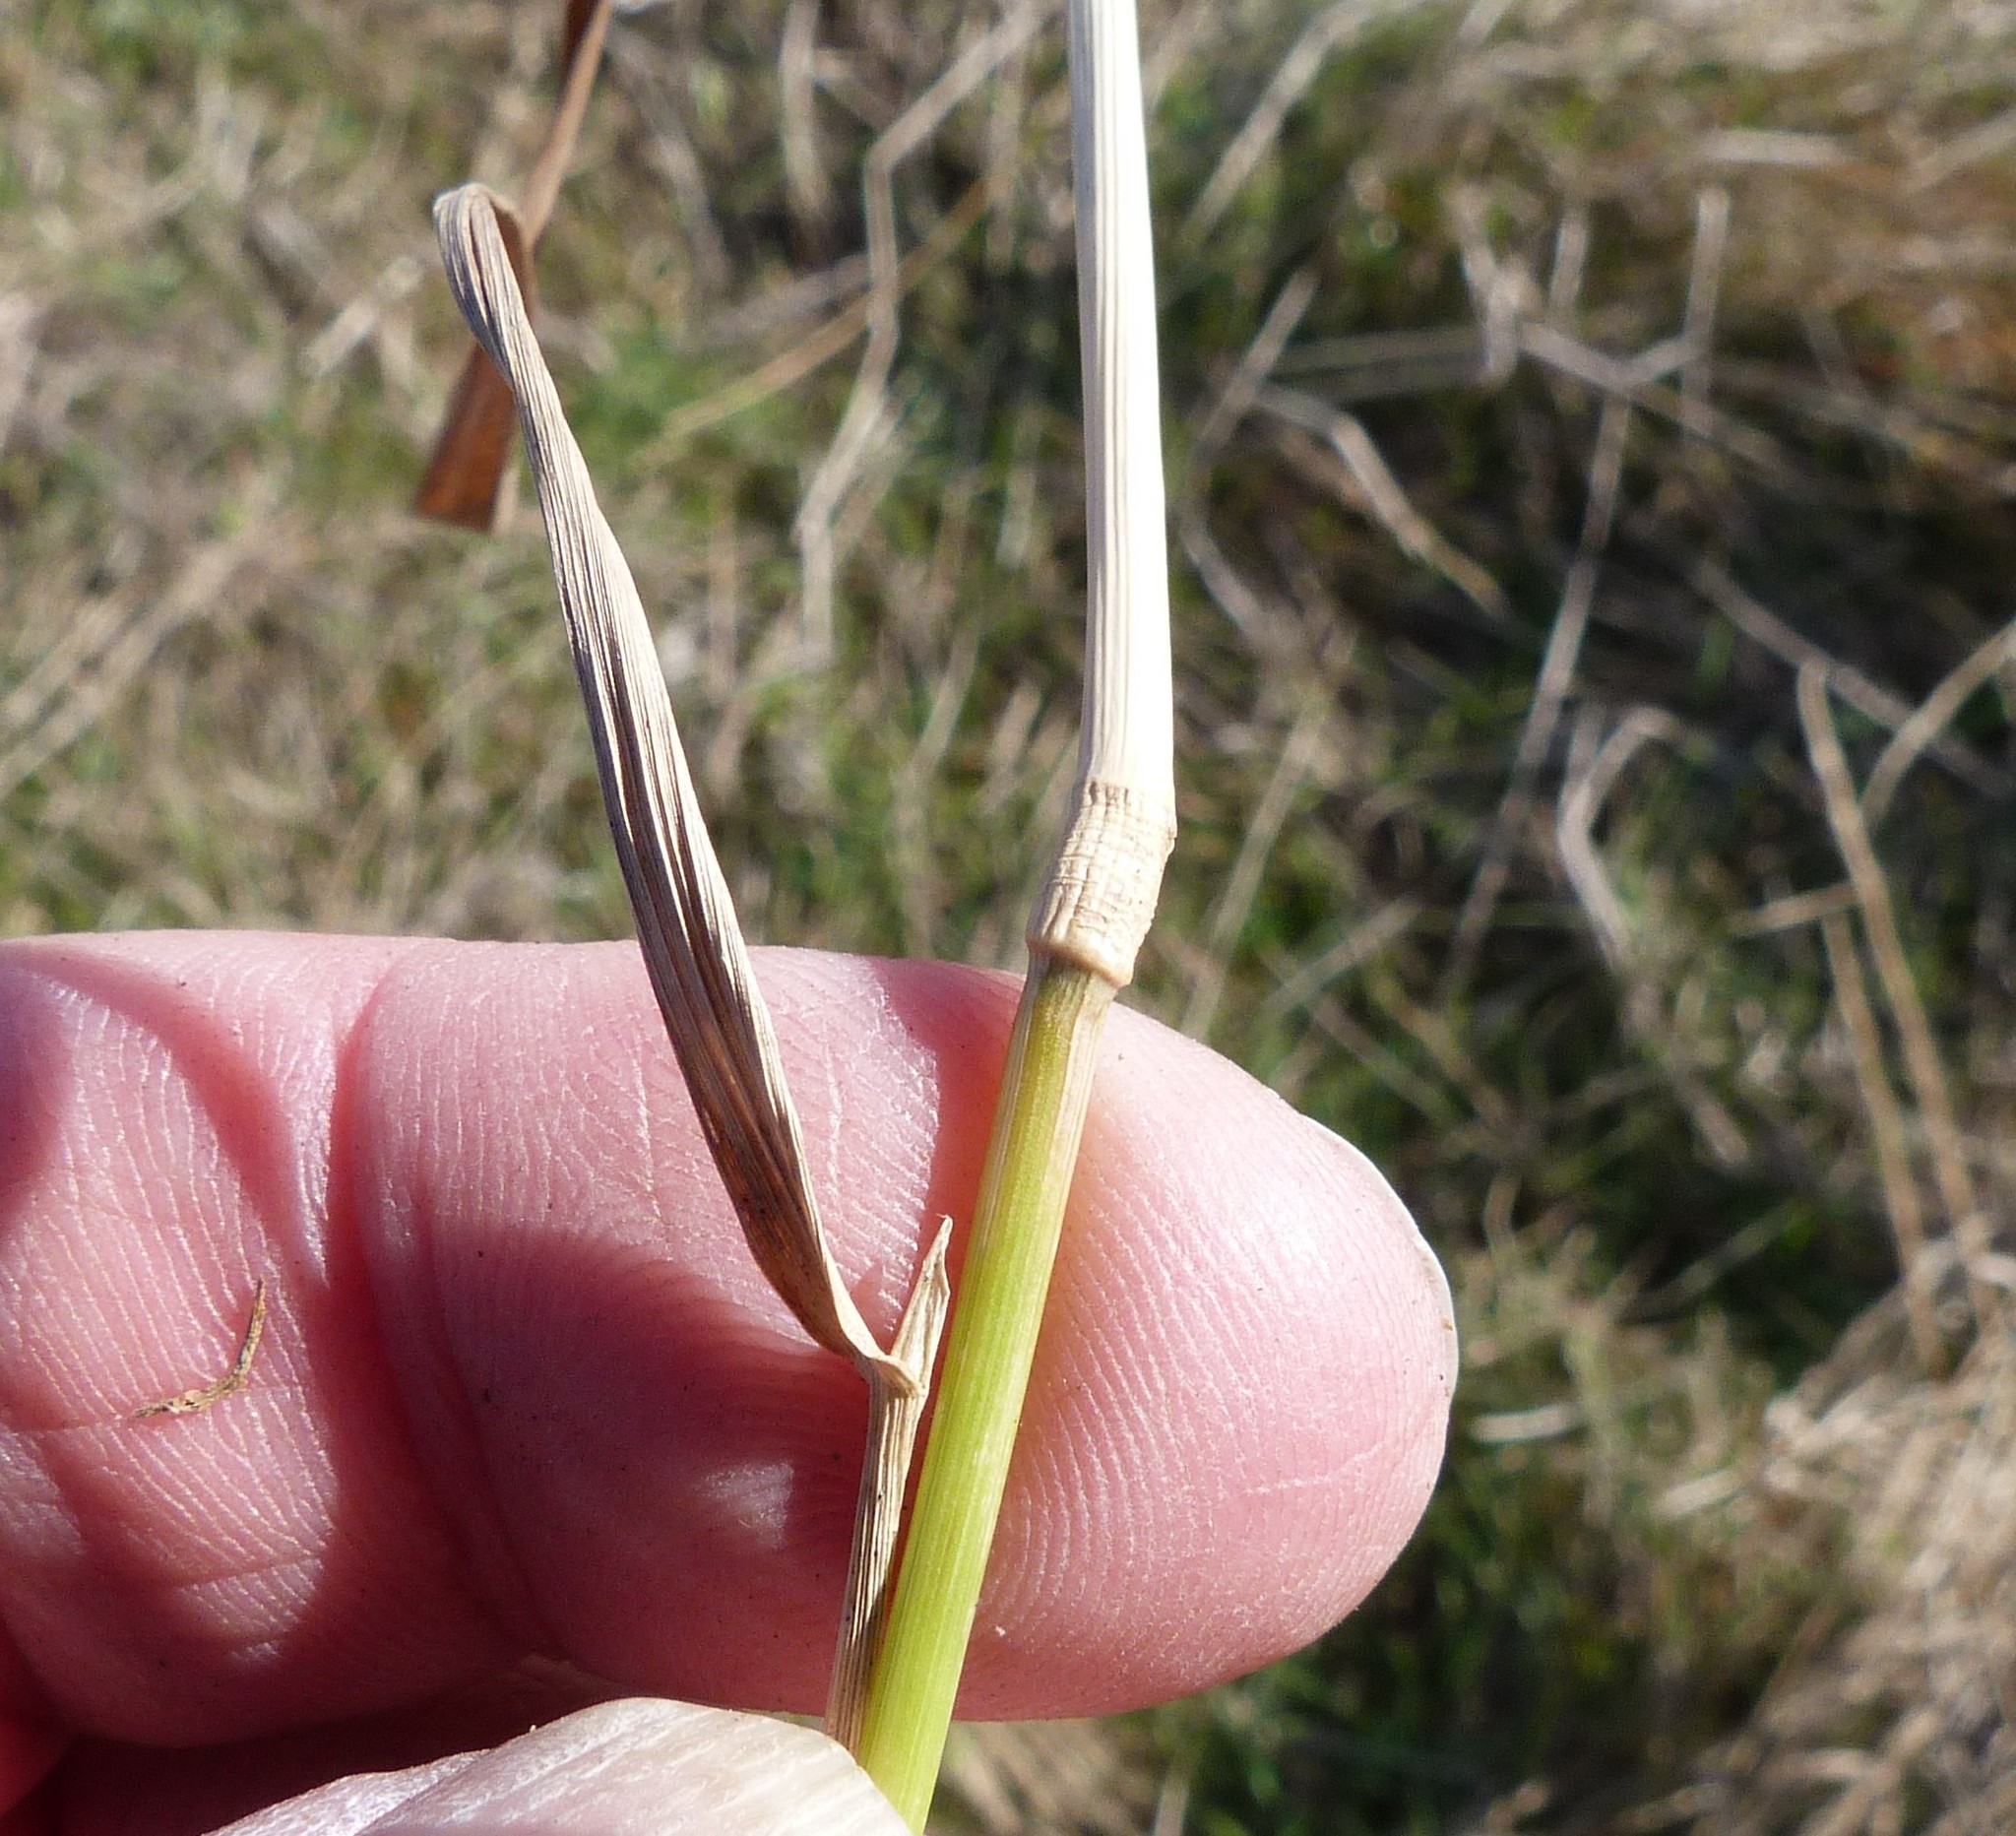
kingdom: Plantae
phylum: Tracheophyta
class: Liliopsida
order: Poales
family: Poaceae
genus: Agrostis
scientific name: Agrostis stolonifera
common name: Creeping bentgrass
